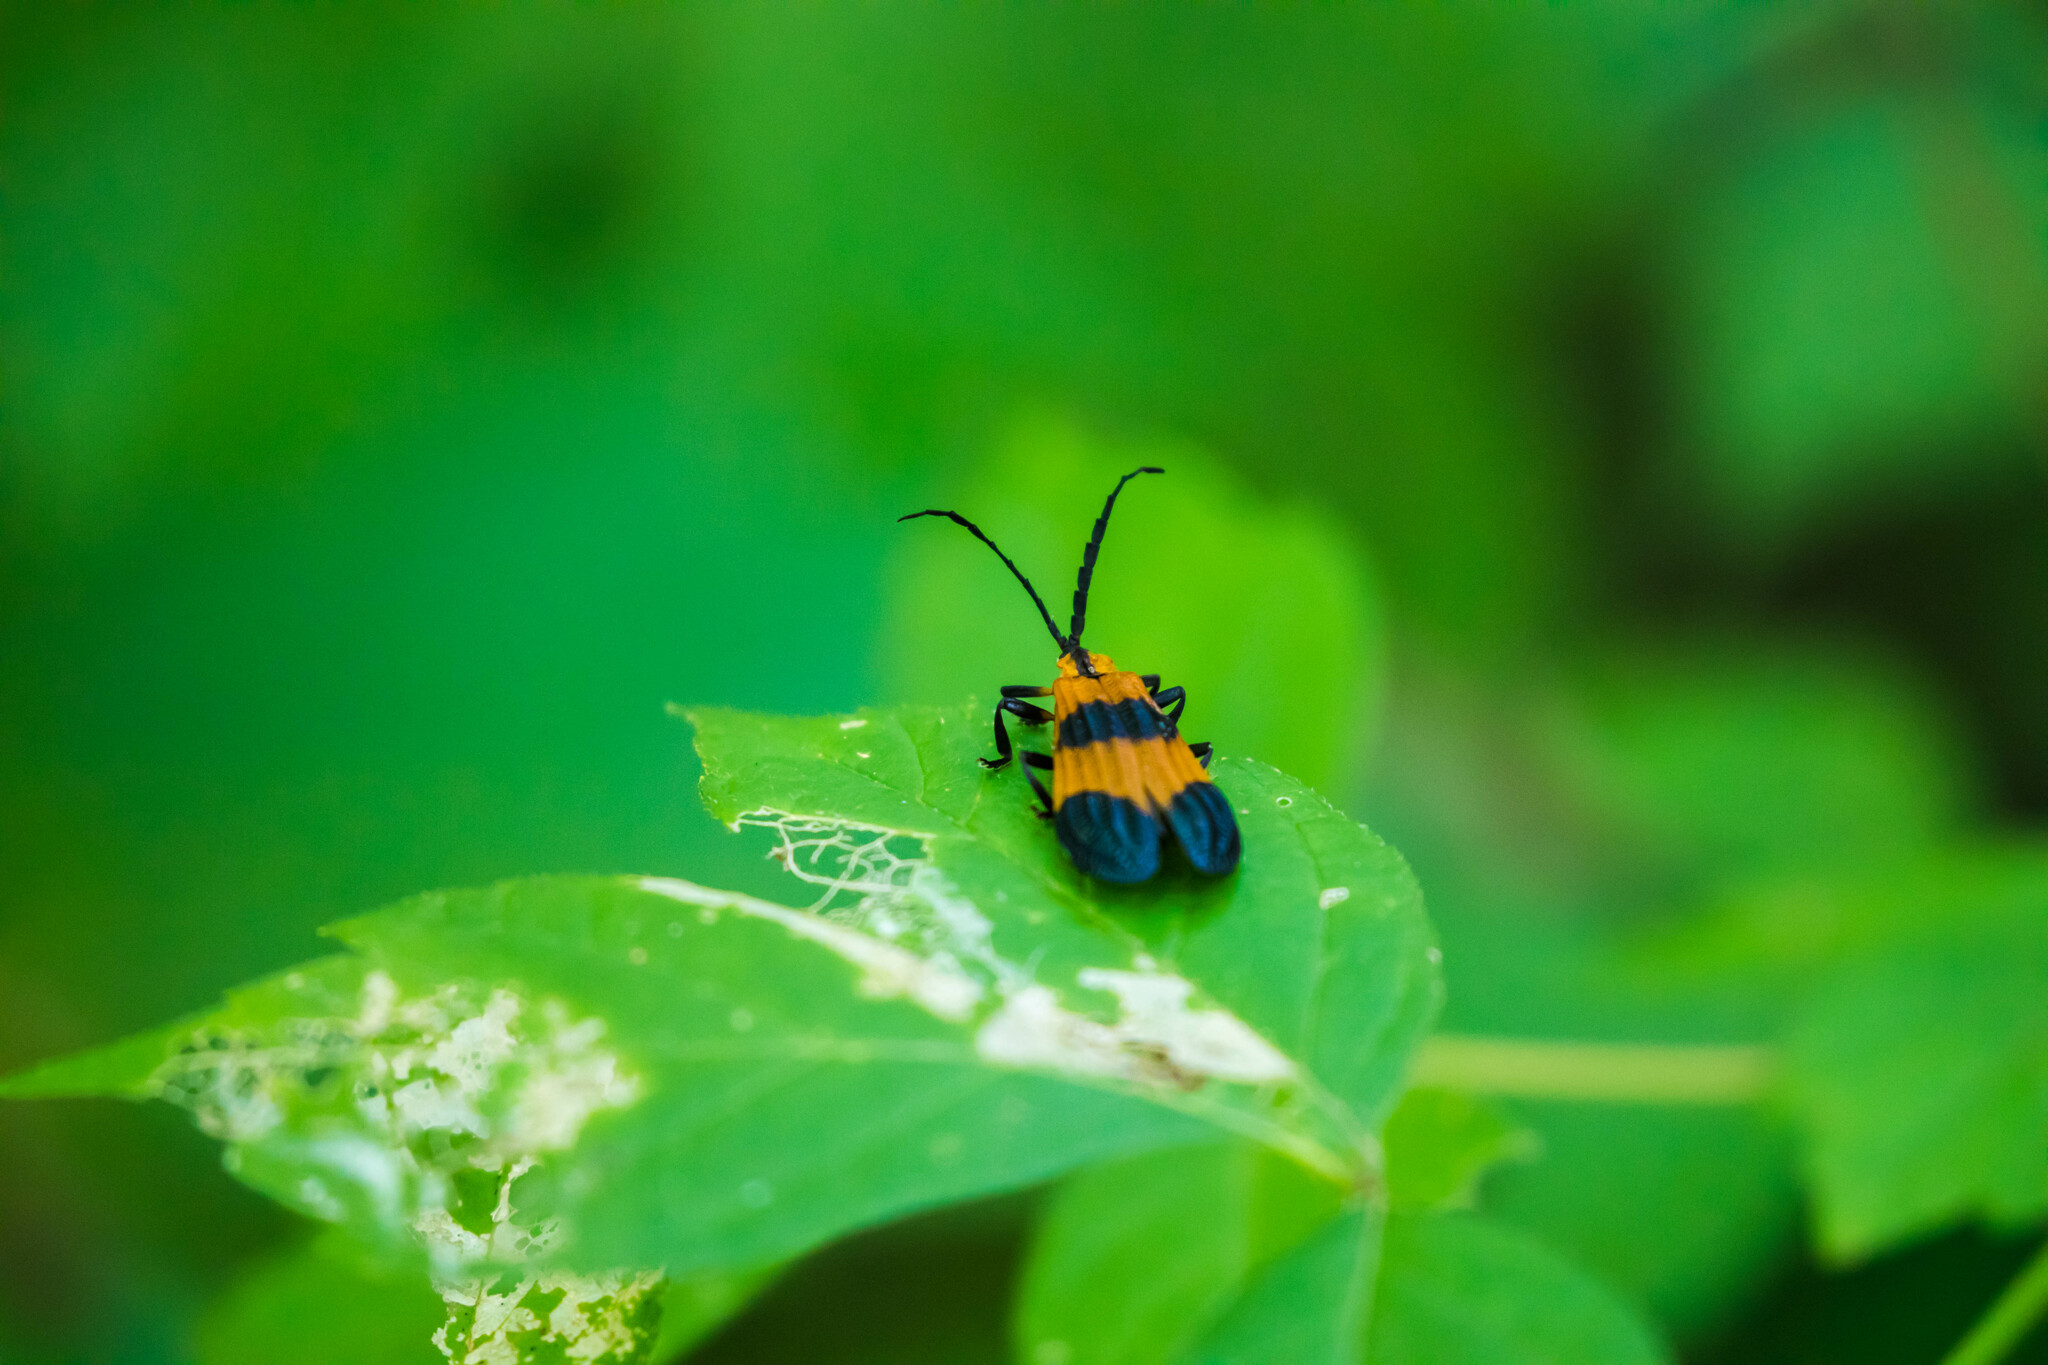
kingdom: Animalia
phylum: Arthropoda
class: Insecta
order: Coleoptera
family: Lycidae
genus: Calopteron
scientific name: Calopteron terminale
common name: End band net-winged beetle
